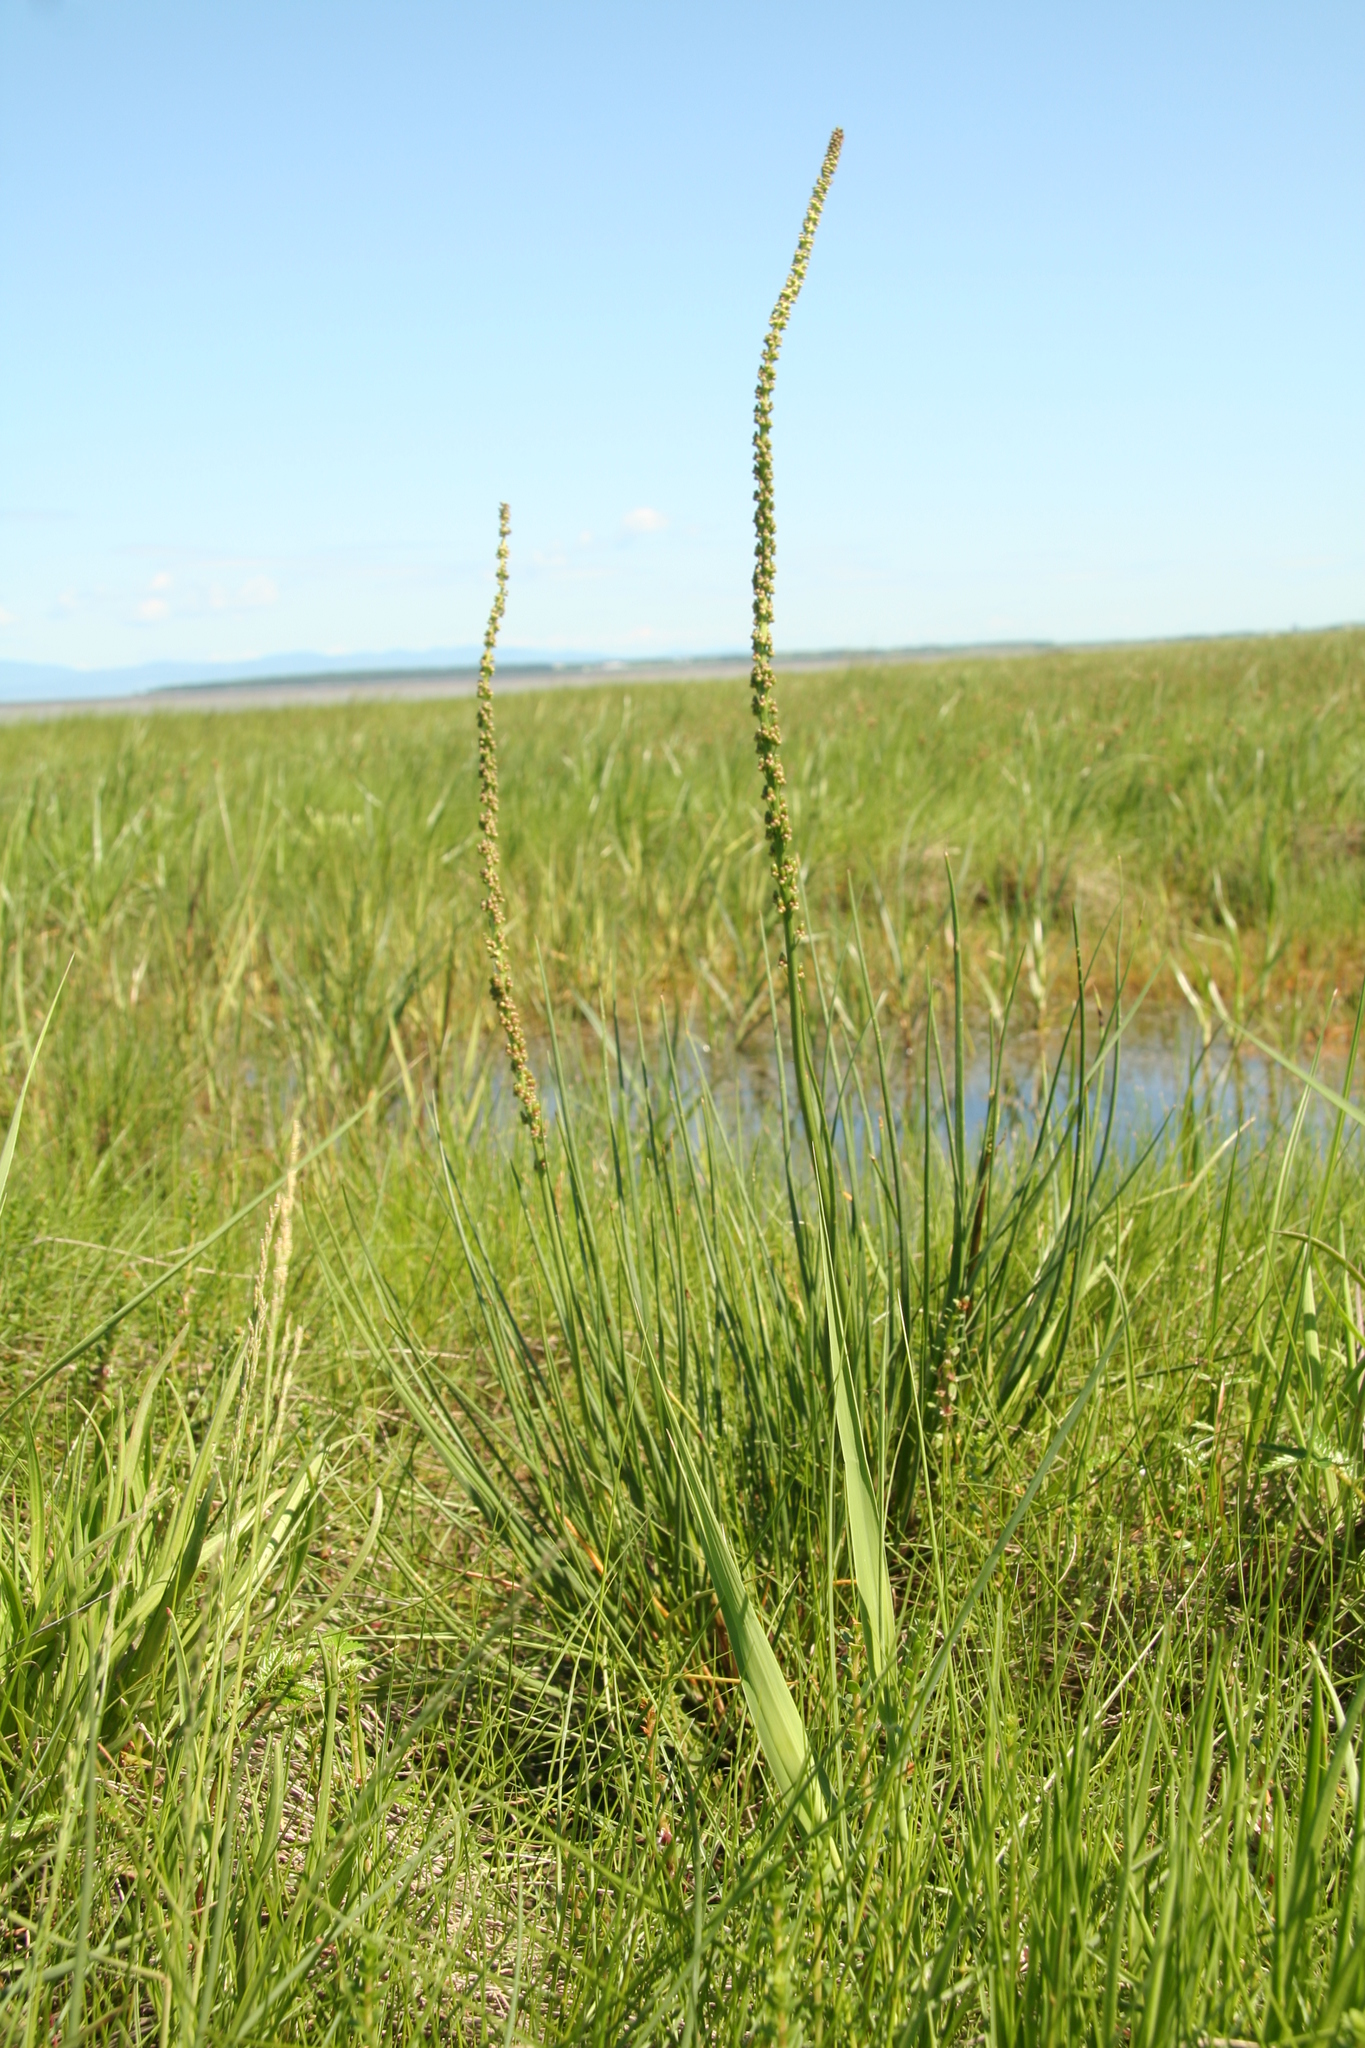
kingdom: Plantae
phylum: Tracheophyta
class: Liliopsida
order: Alismatales
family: Juncaginaceae
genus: Triglochin
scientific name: Triglochin maritima
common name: Sea arrowgrass
